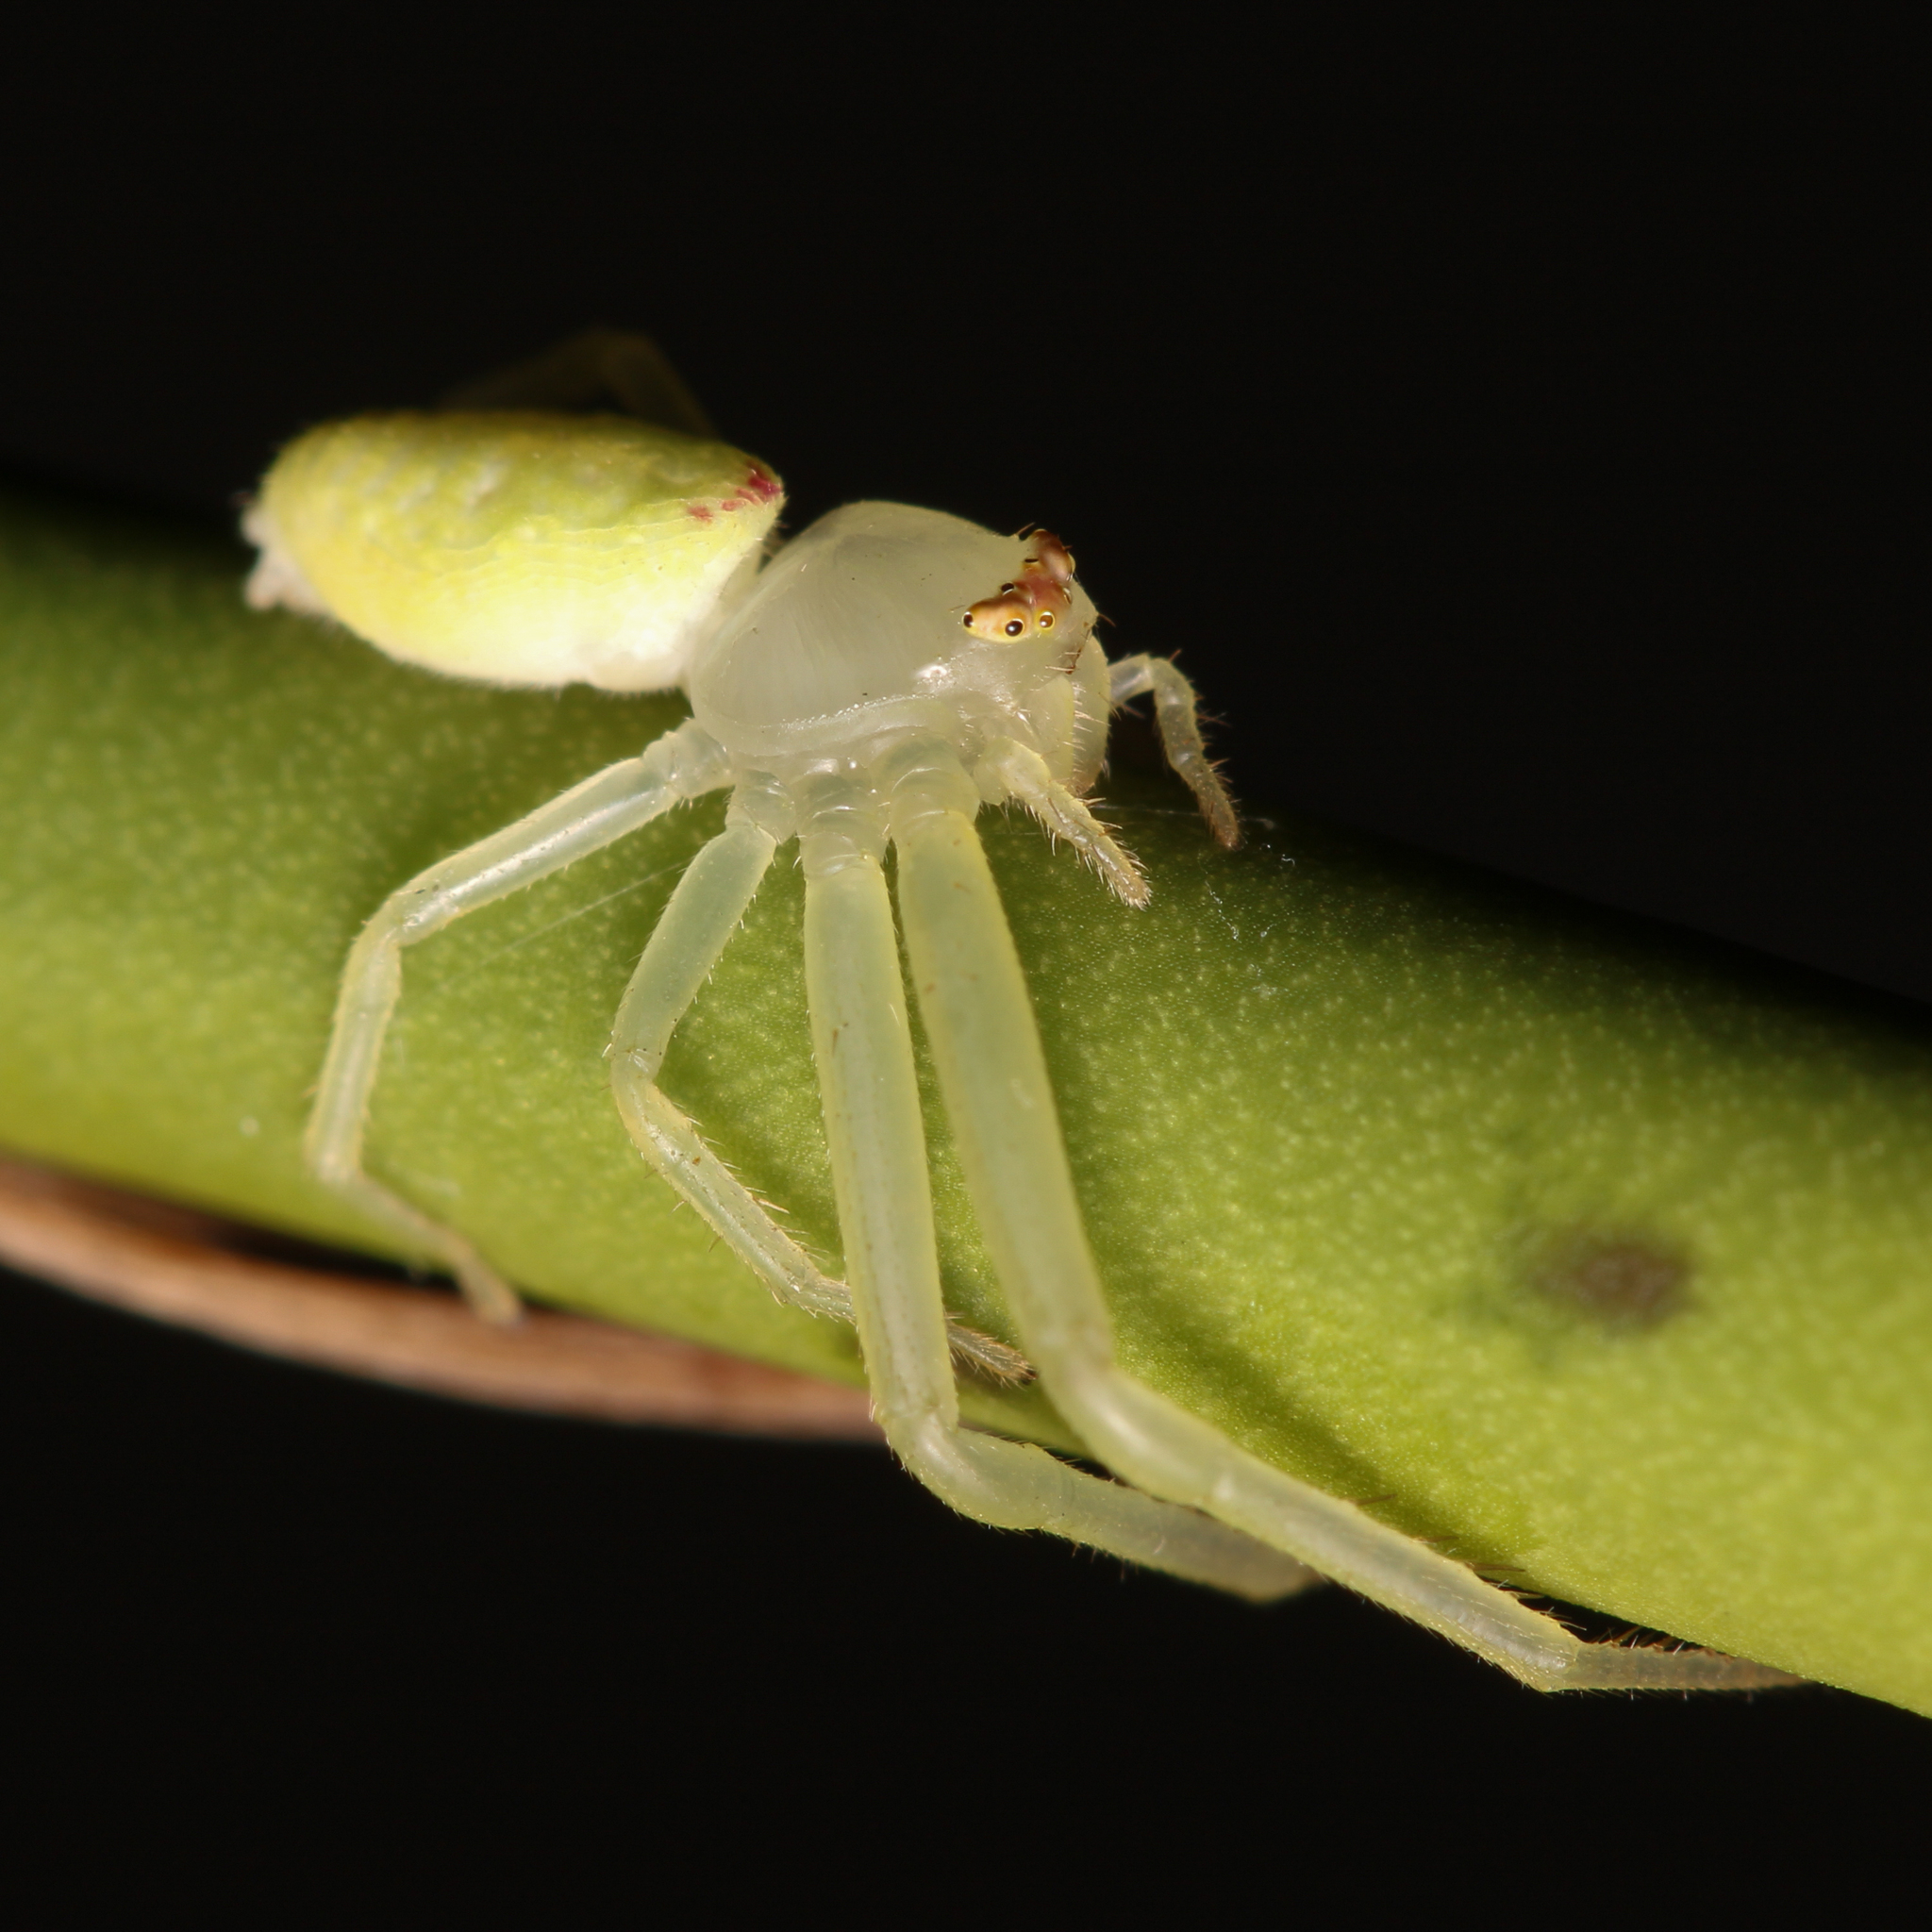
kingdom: Animalia
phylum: Arthropoda
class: Arachnida
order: Araneae
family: Thomisidae
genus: Misumessus
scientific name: Misumessus oblongus
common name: American green crab spider
